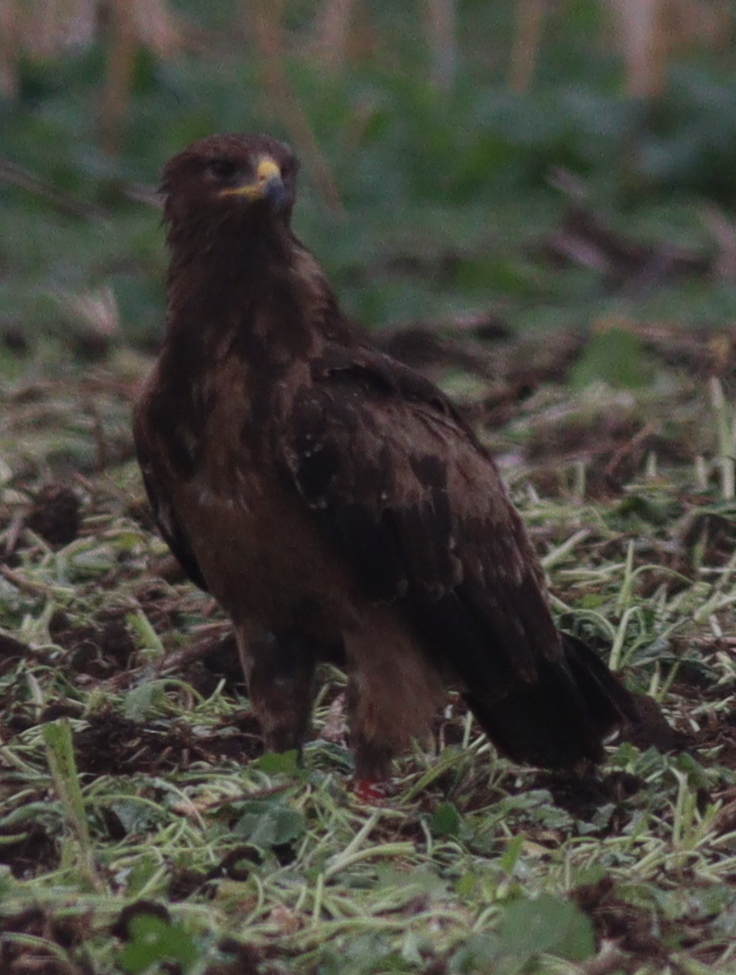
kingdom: Animalia
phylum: Chordata
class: Aves
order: Accipitriformes
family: Accipitridae
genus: Aquila
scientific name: Aquila pomarina
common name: Lesser spotted eagle
